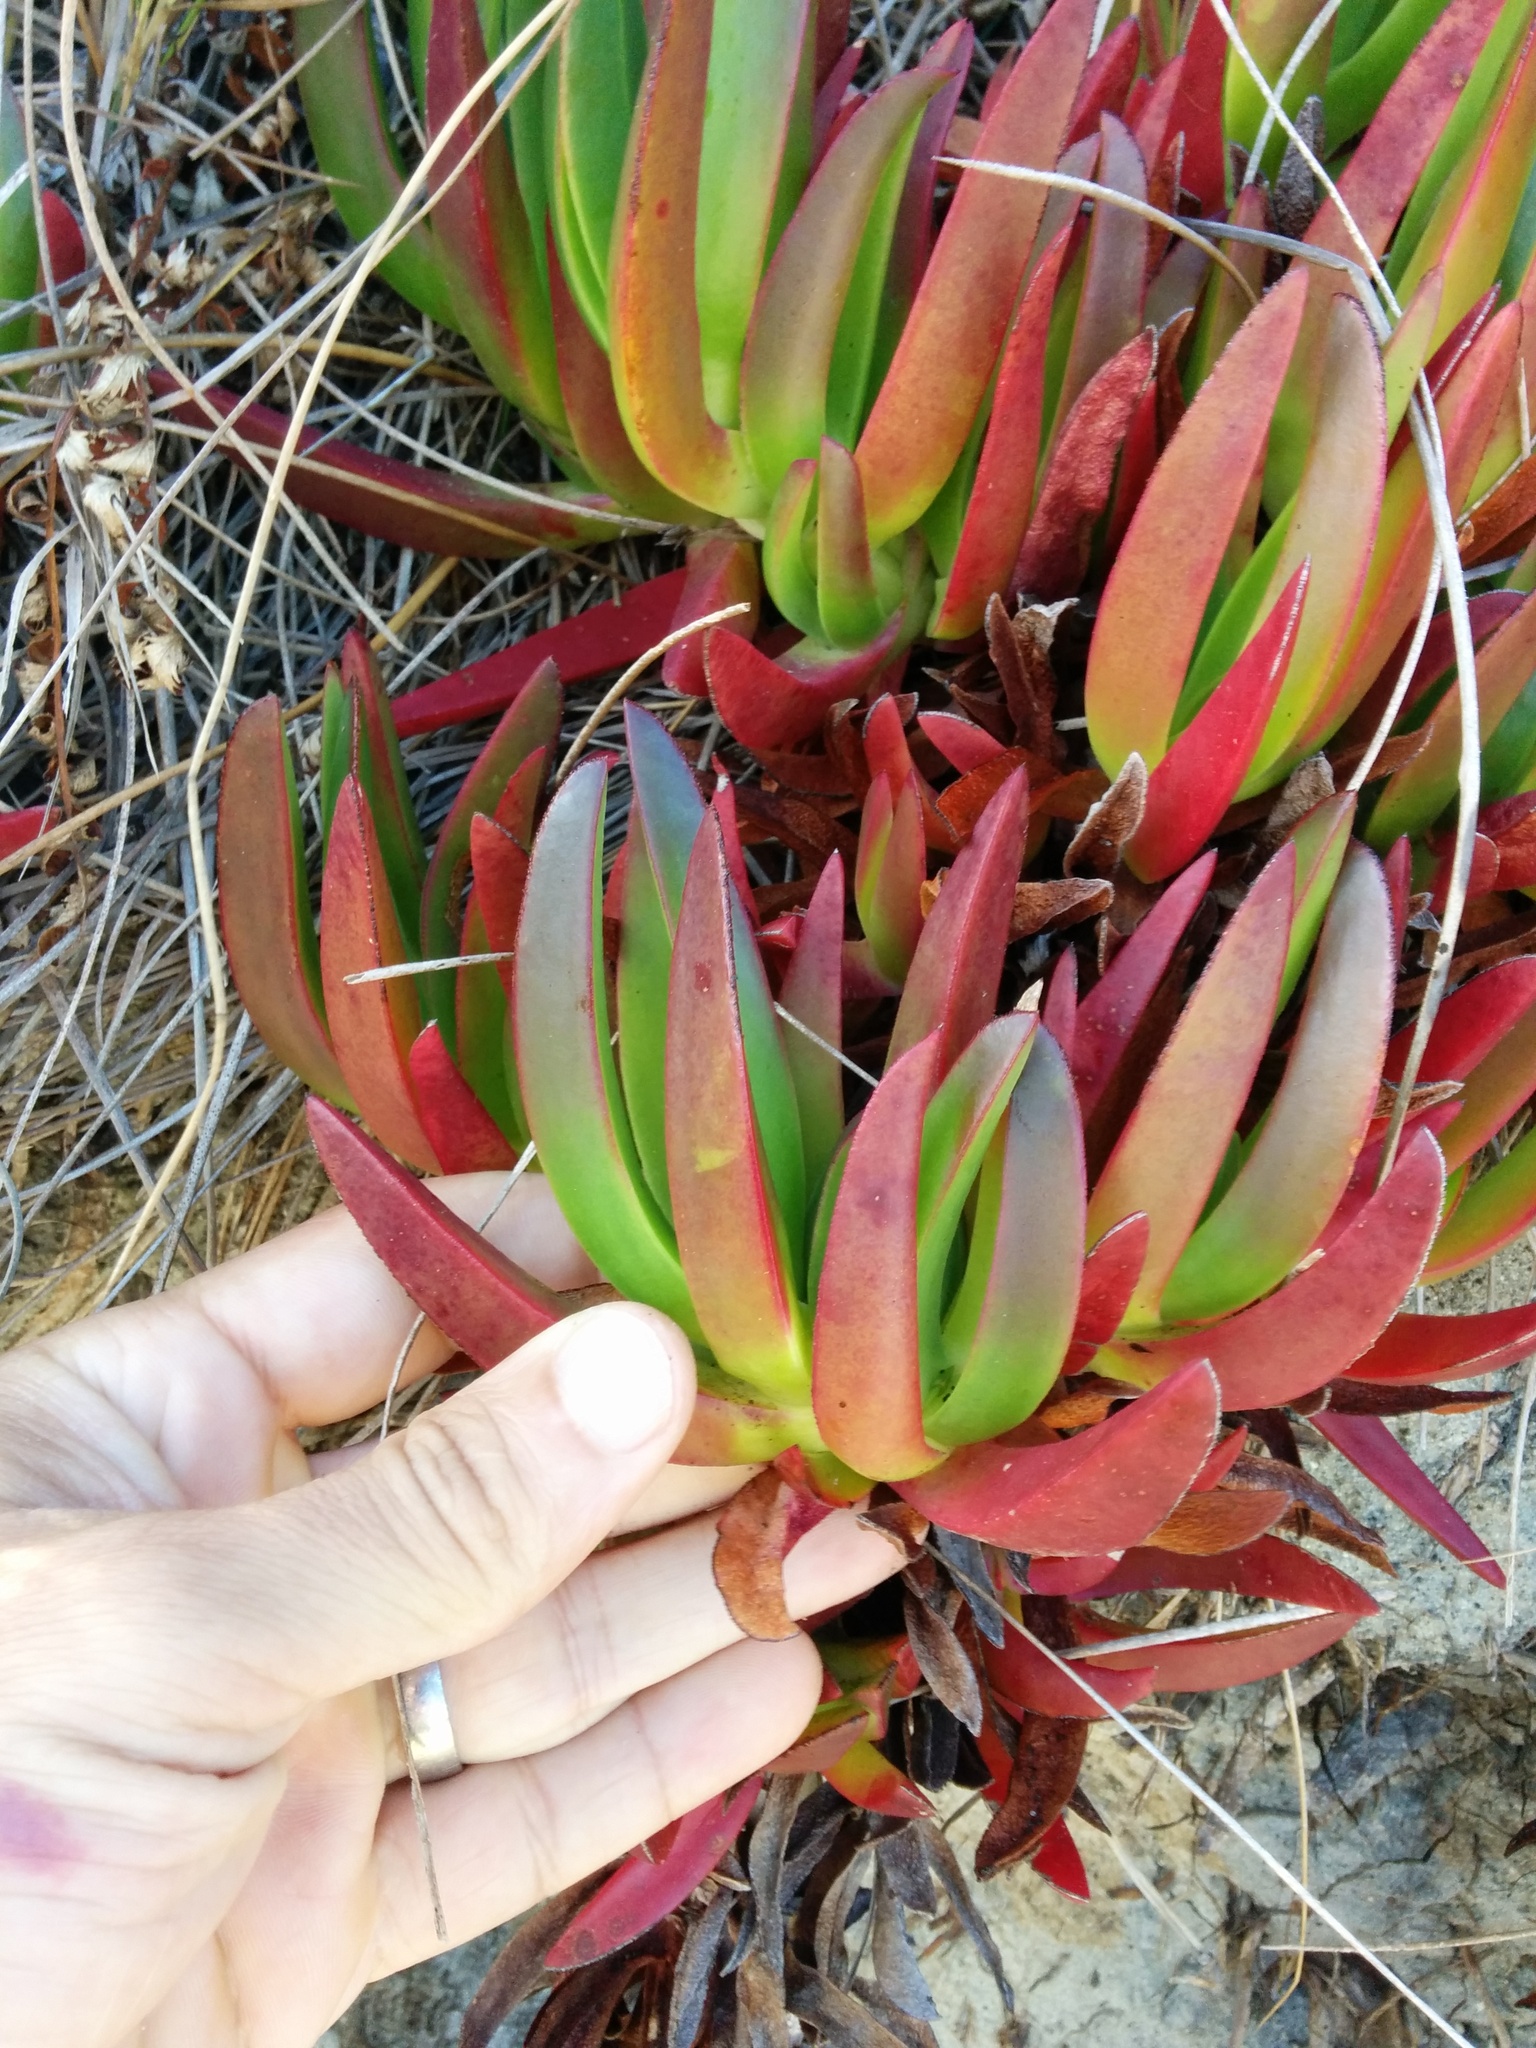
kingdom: Plantae
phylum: Tracheophyta
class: Magnoliopsida
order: Caryophyllales
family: Aizoaceae
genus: Carpobrotus
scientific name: Carpobrotus edulis
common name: Hottentot-fig
